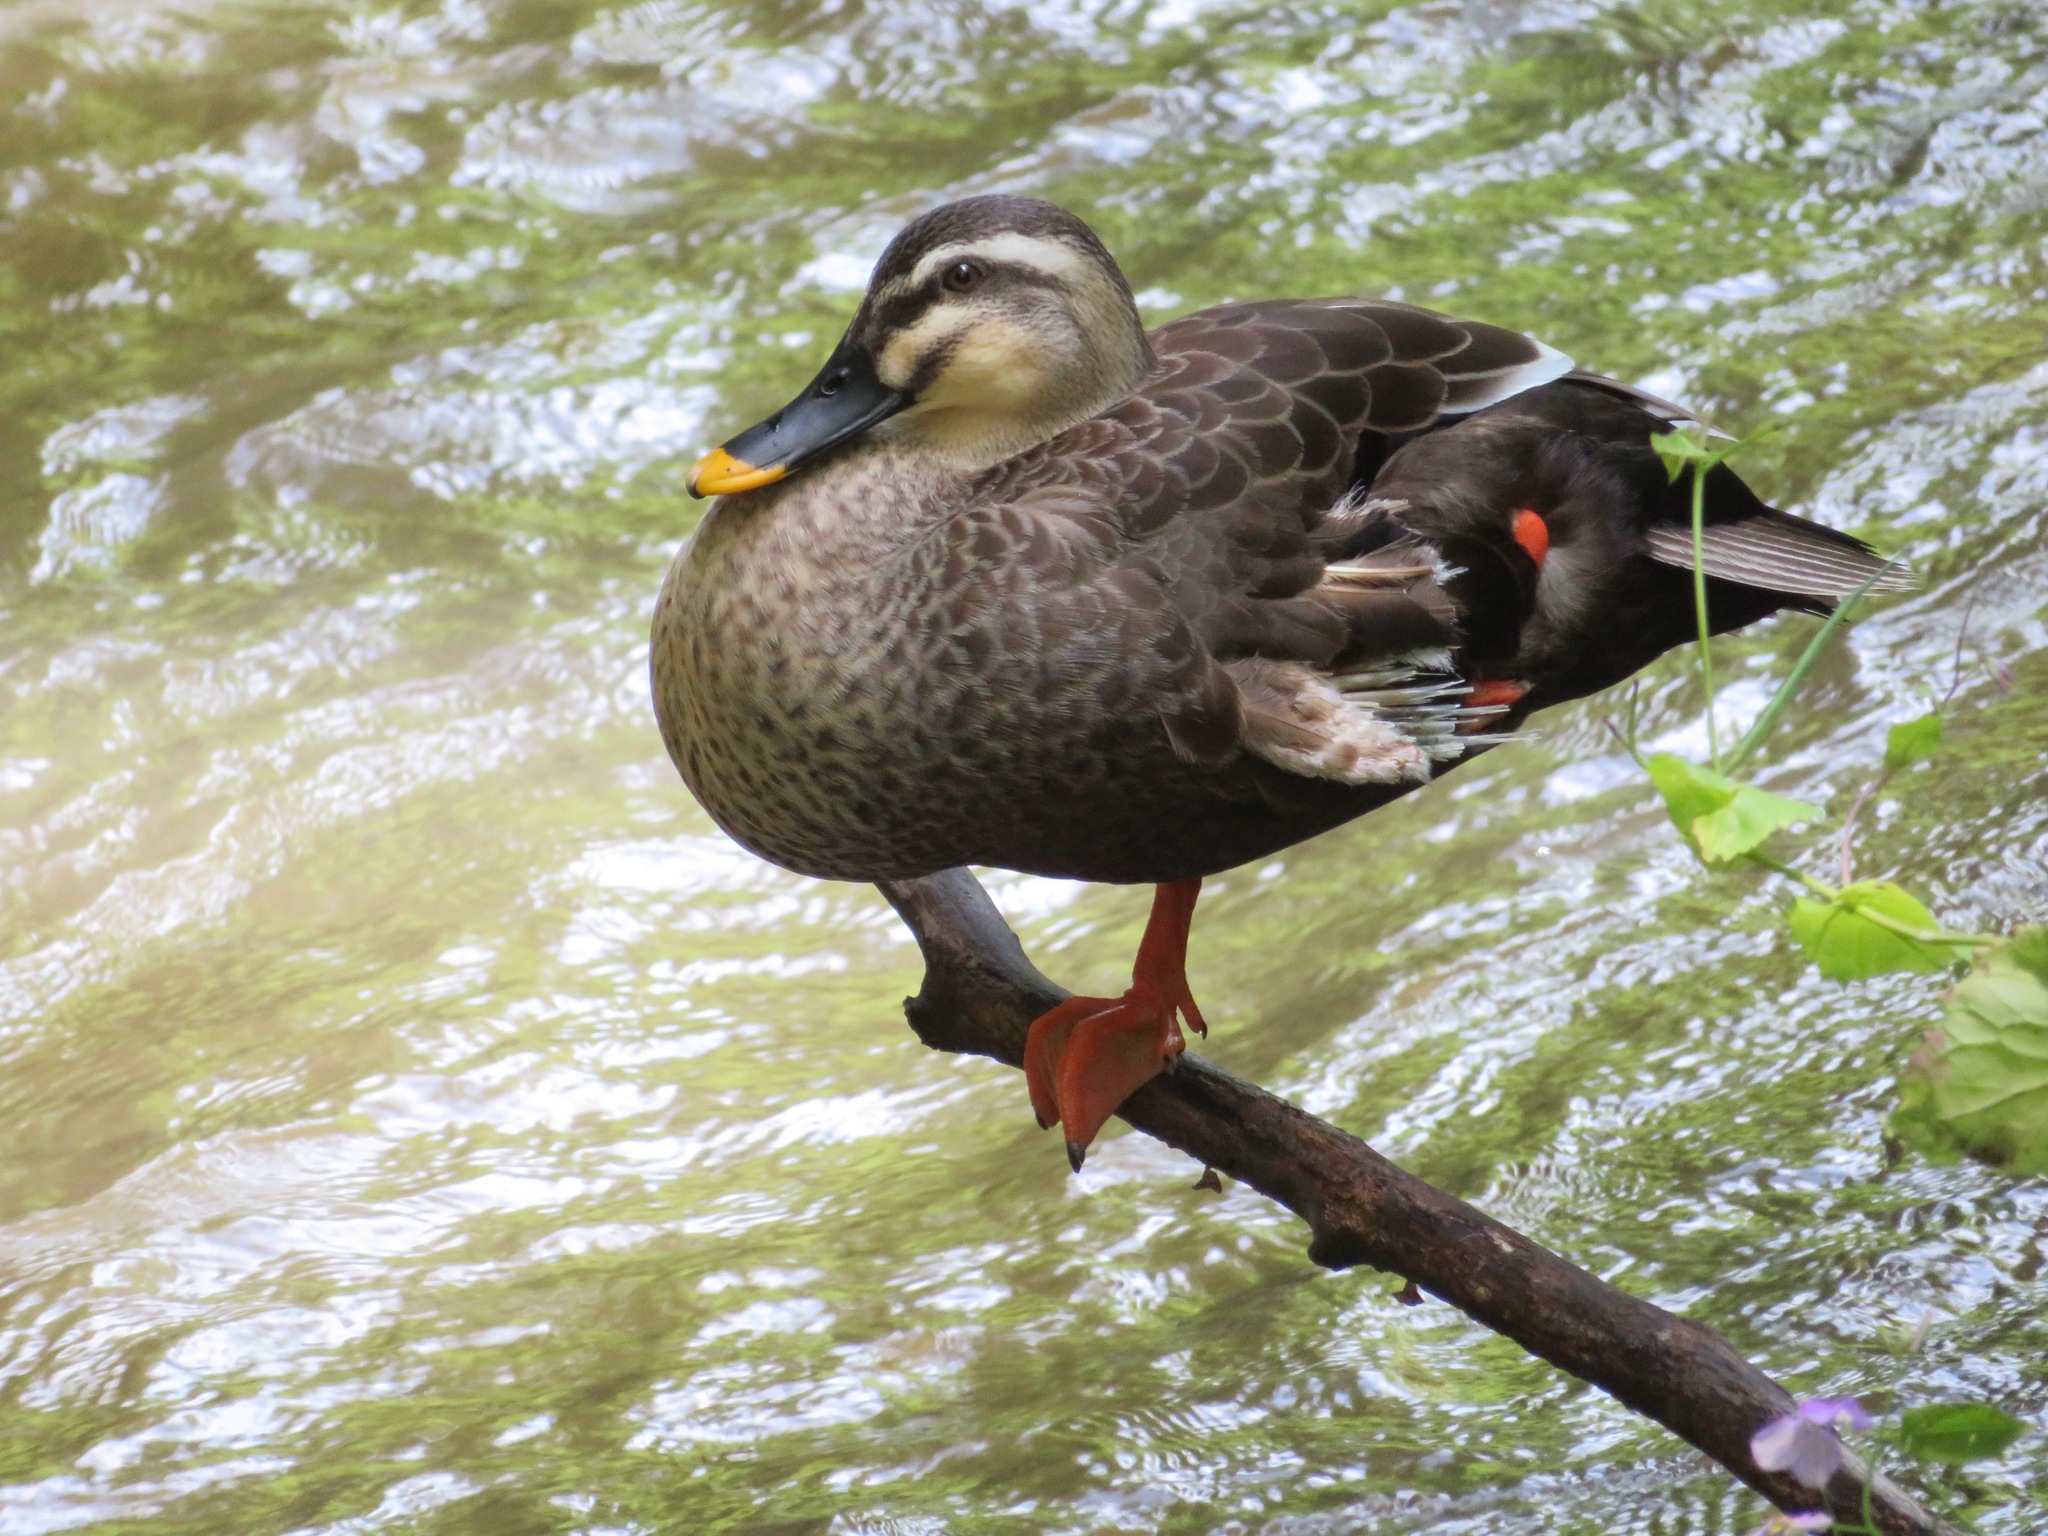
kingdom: Animalia
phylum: Chordata
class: Aves
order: Anseriformes
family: Anatidae
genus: Anas
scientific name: Anas zonorhyncha
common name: Eastern spot-billed duck
